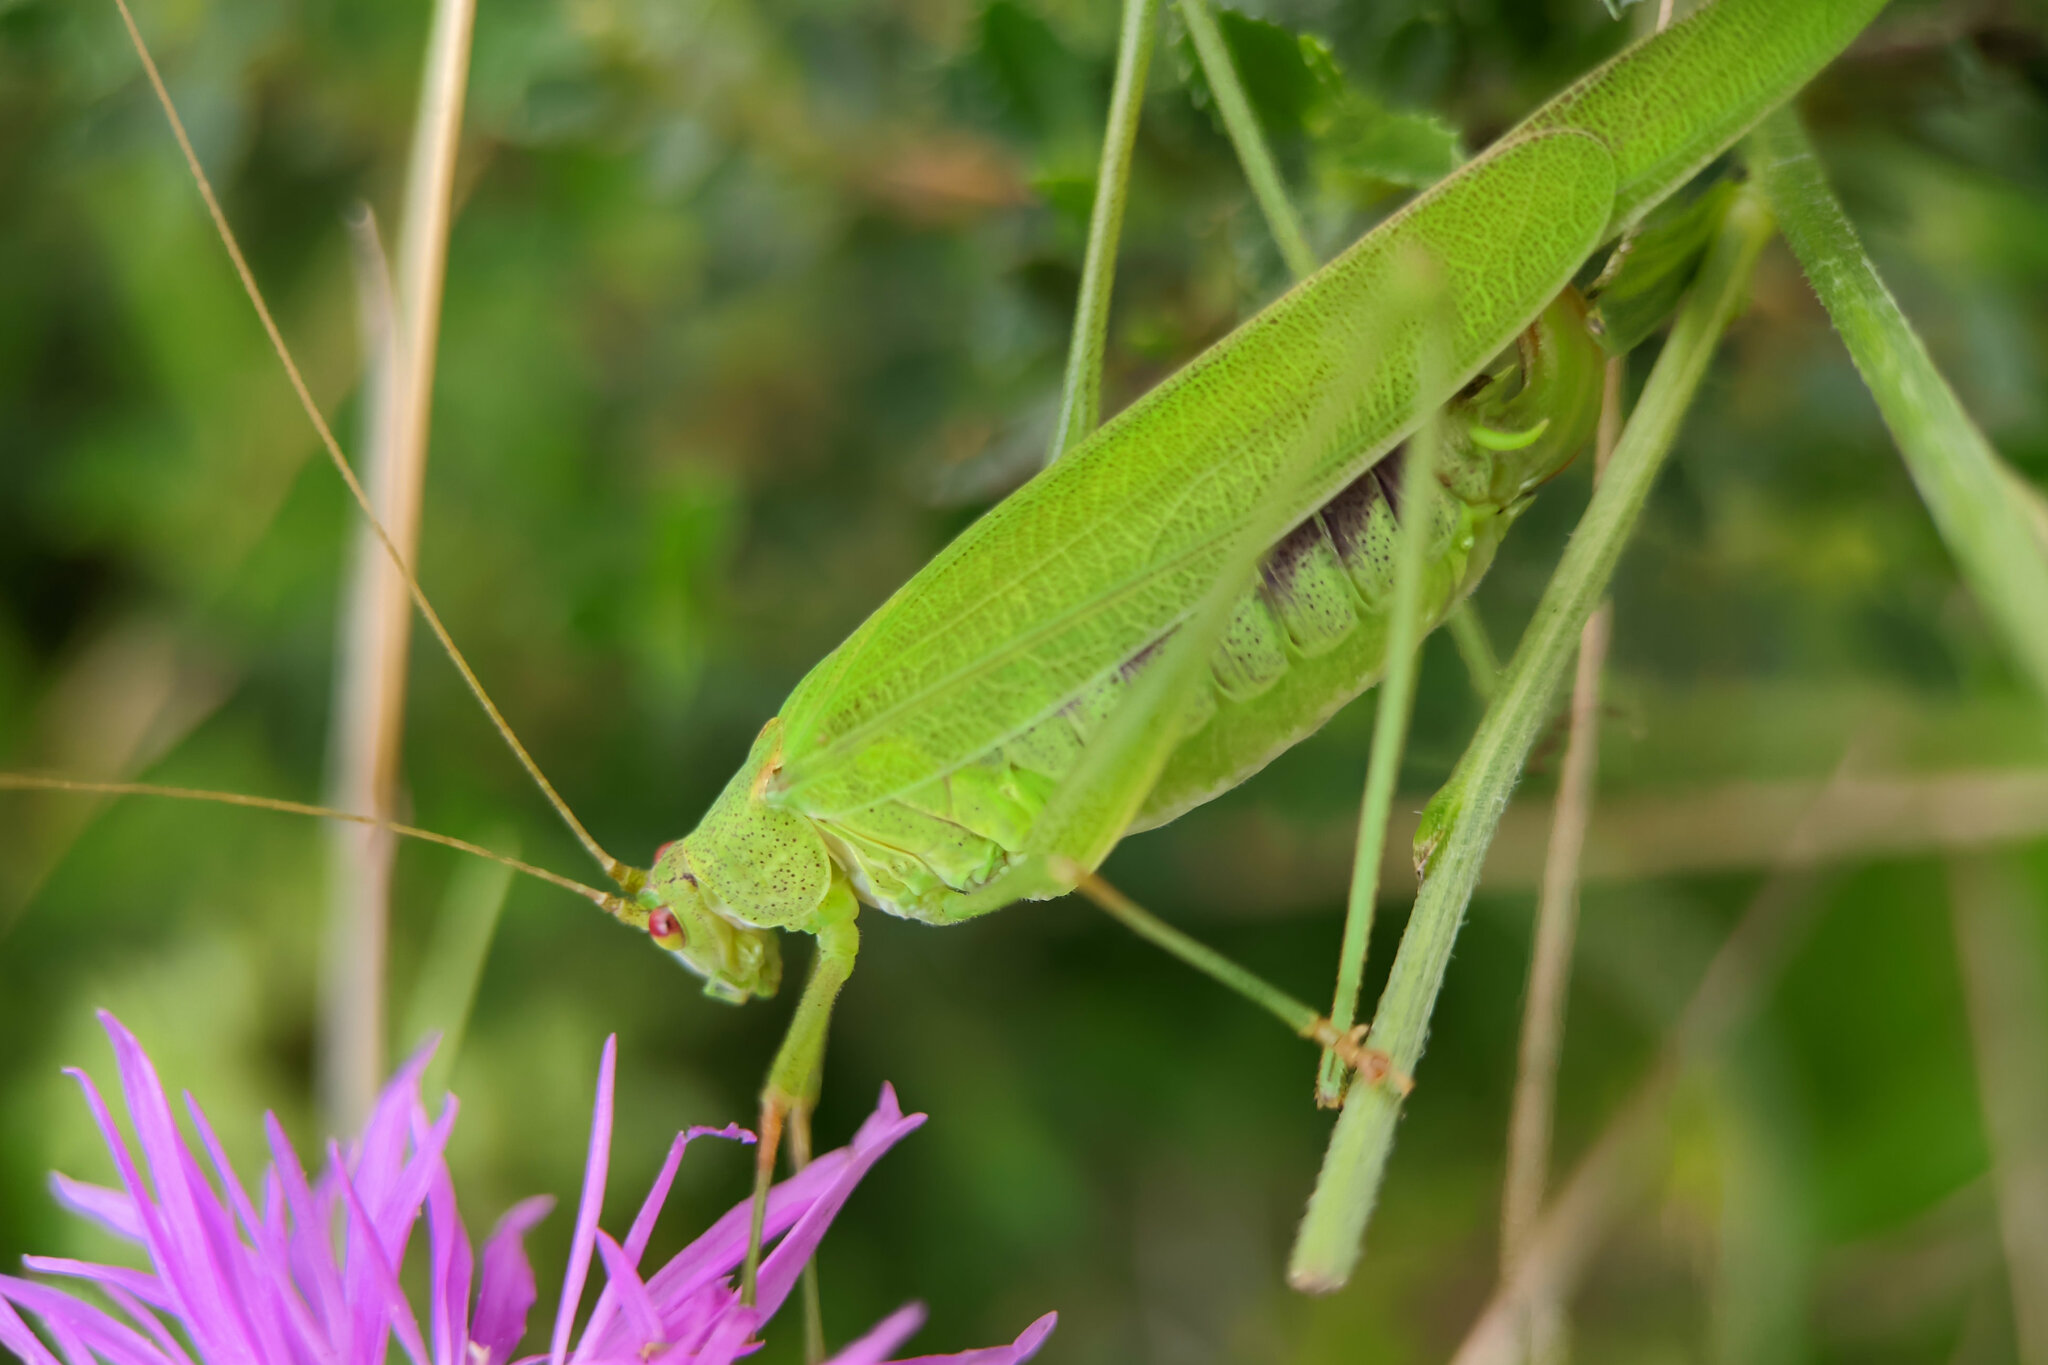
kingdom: Animalia
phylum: Arthropoda
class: Insecta
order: Orthoptera
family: Tettigoniidae
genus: Phaneroptera
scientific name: Phaneroptera falcata
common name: Sickle-bearing bush-cricket
